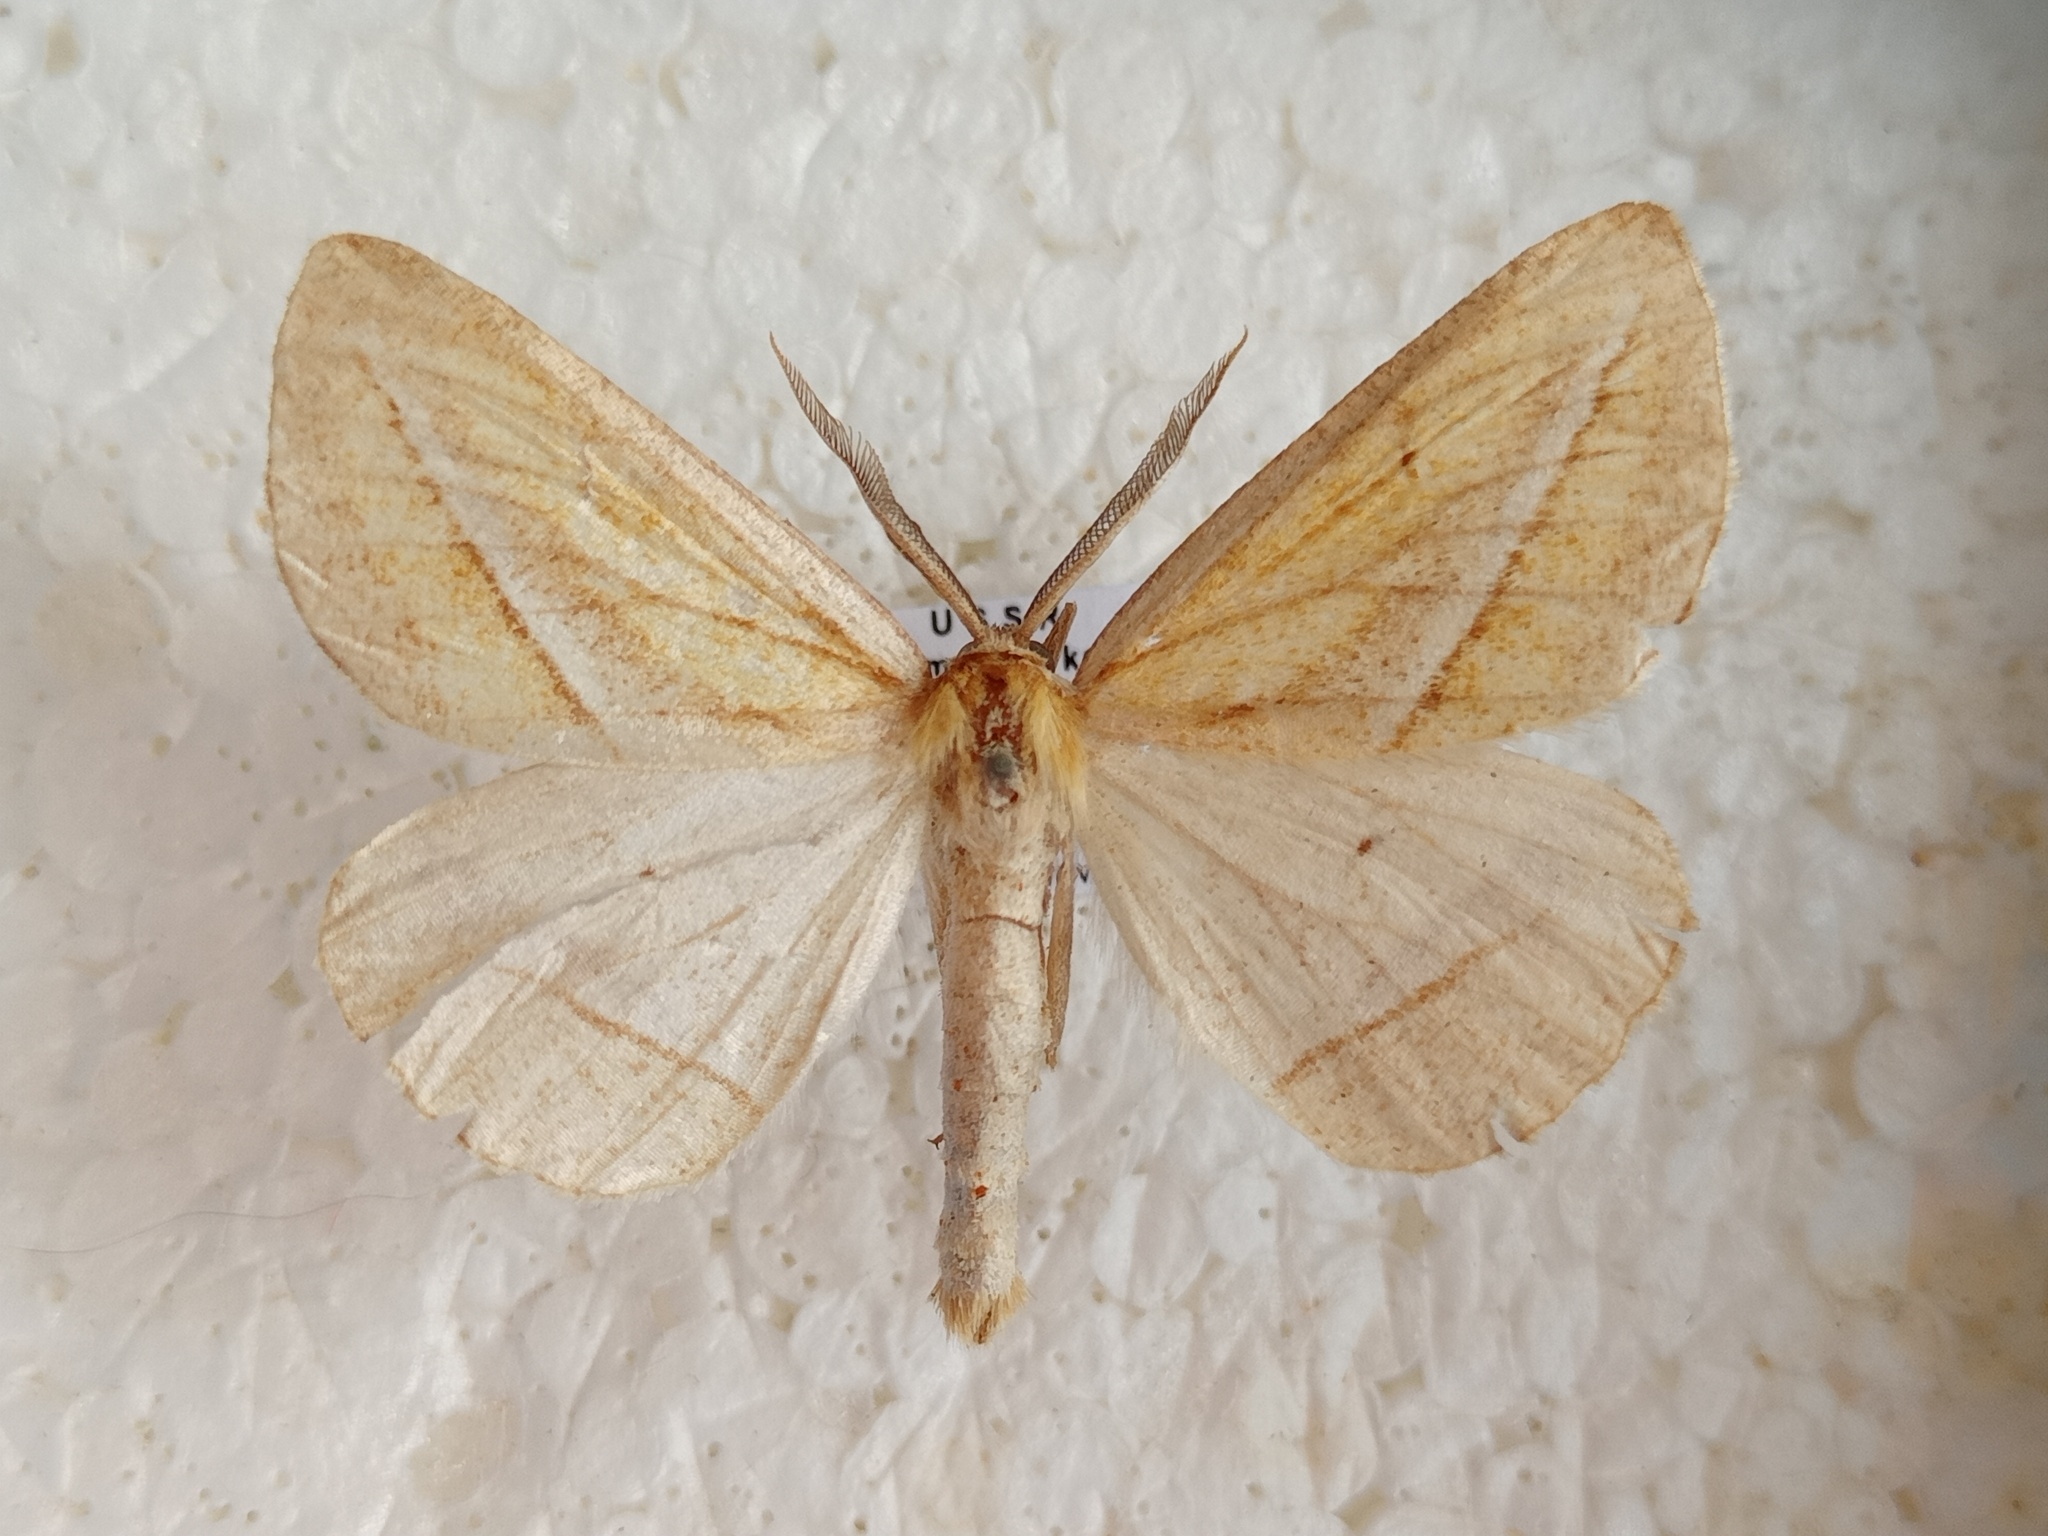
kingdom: Animalia
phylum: Arthropoda
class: Insecta
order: Lepidoptera
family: Geometridae
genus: Chariaspilates
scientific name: Chariaspilates formosaria
